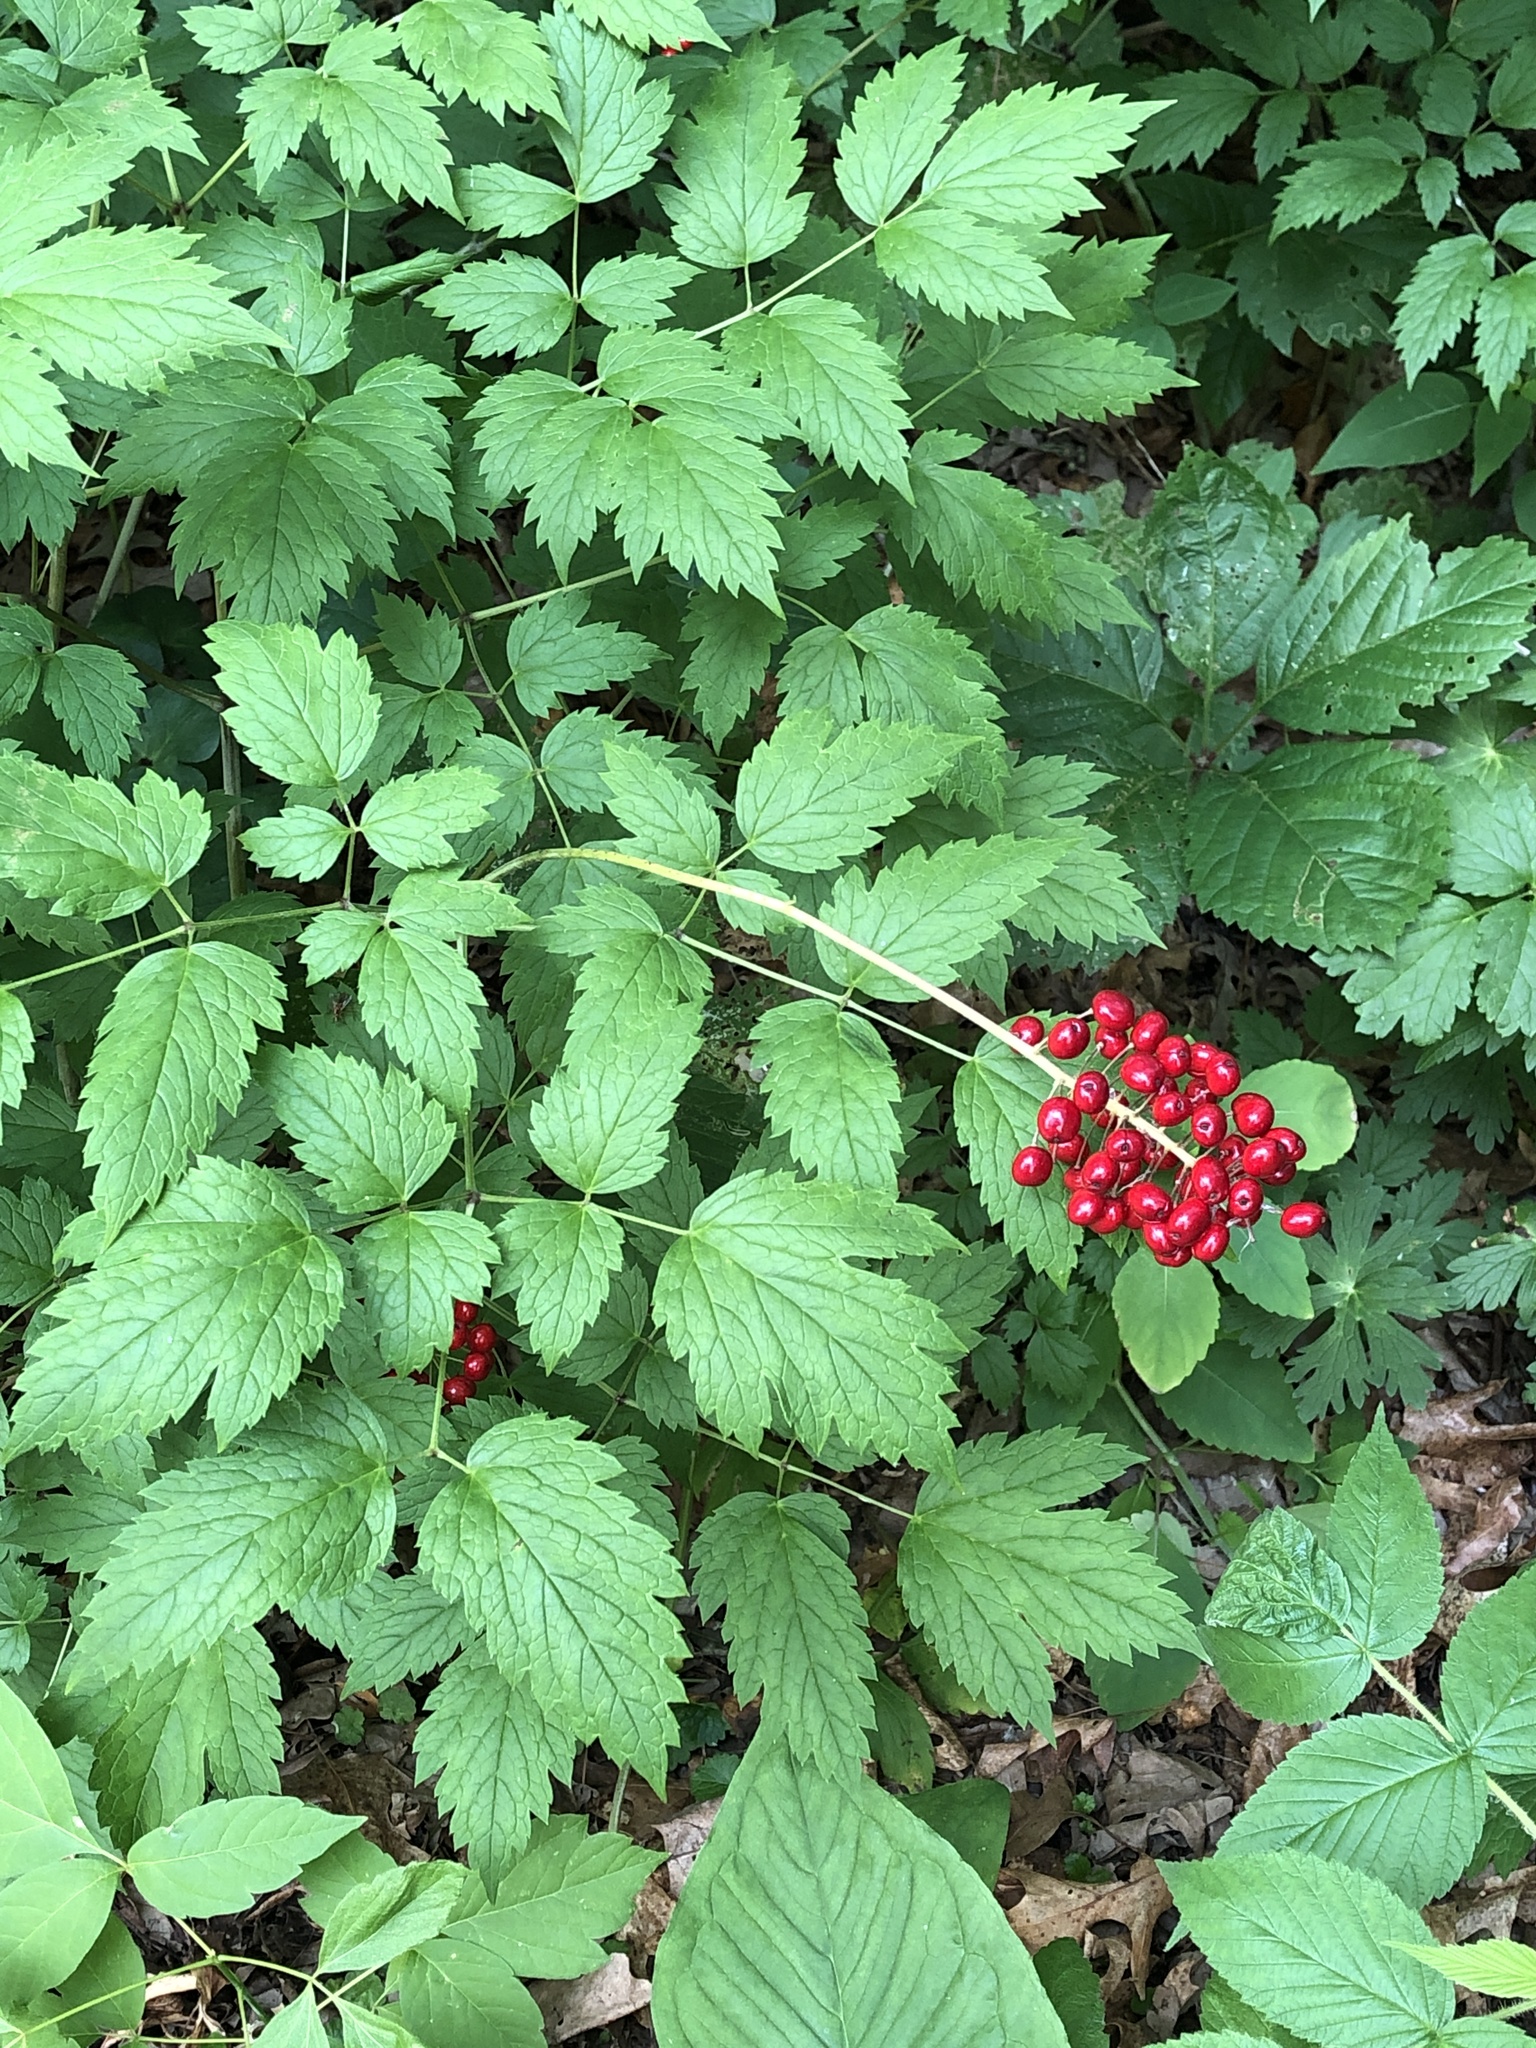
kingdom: Plantae
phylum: Tracheophyta
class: Magnoliopsida
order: Ranunculales
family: Ranunculaceae
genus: Actaea
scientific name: Actaea rubra
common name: Red baneberry
